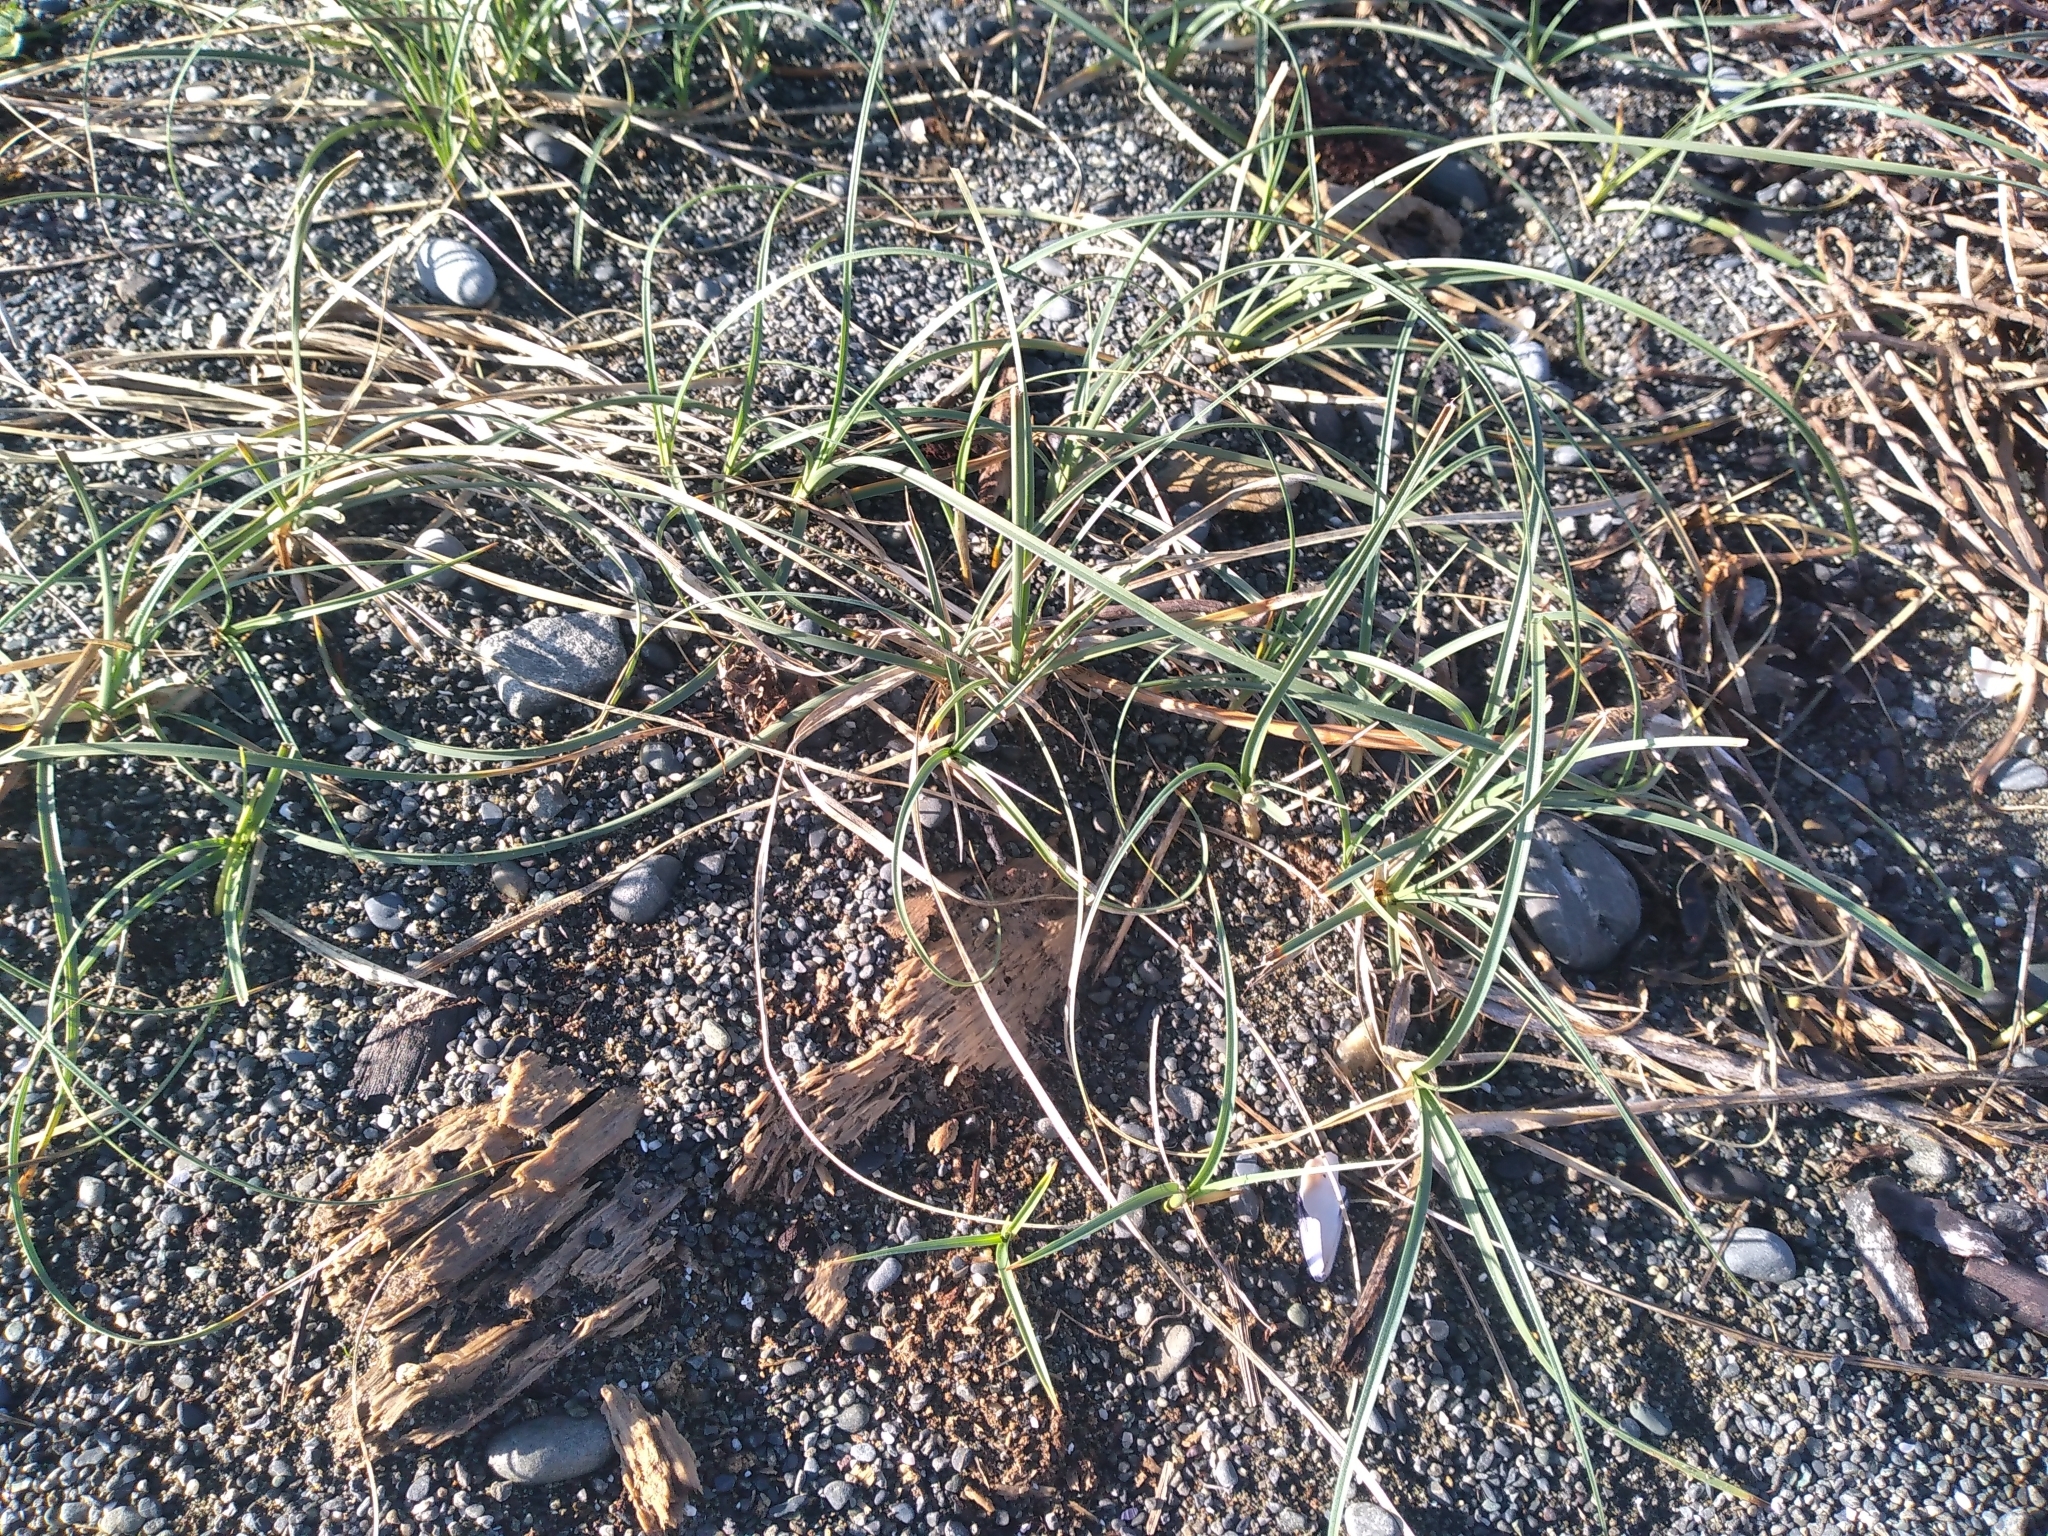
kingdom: Plantae
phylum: Tracheophyta
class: Liliopsida
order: Poales
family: Cyperaceae
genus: Carex
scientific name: Carex pumila
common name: Dwarf sedge
